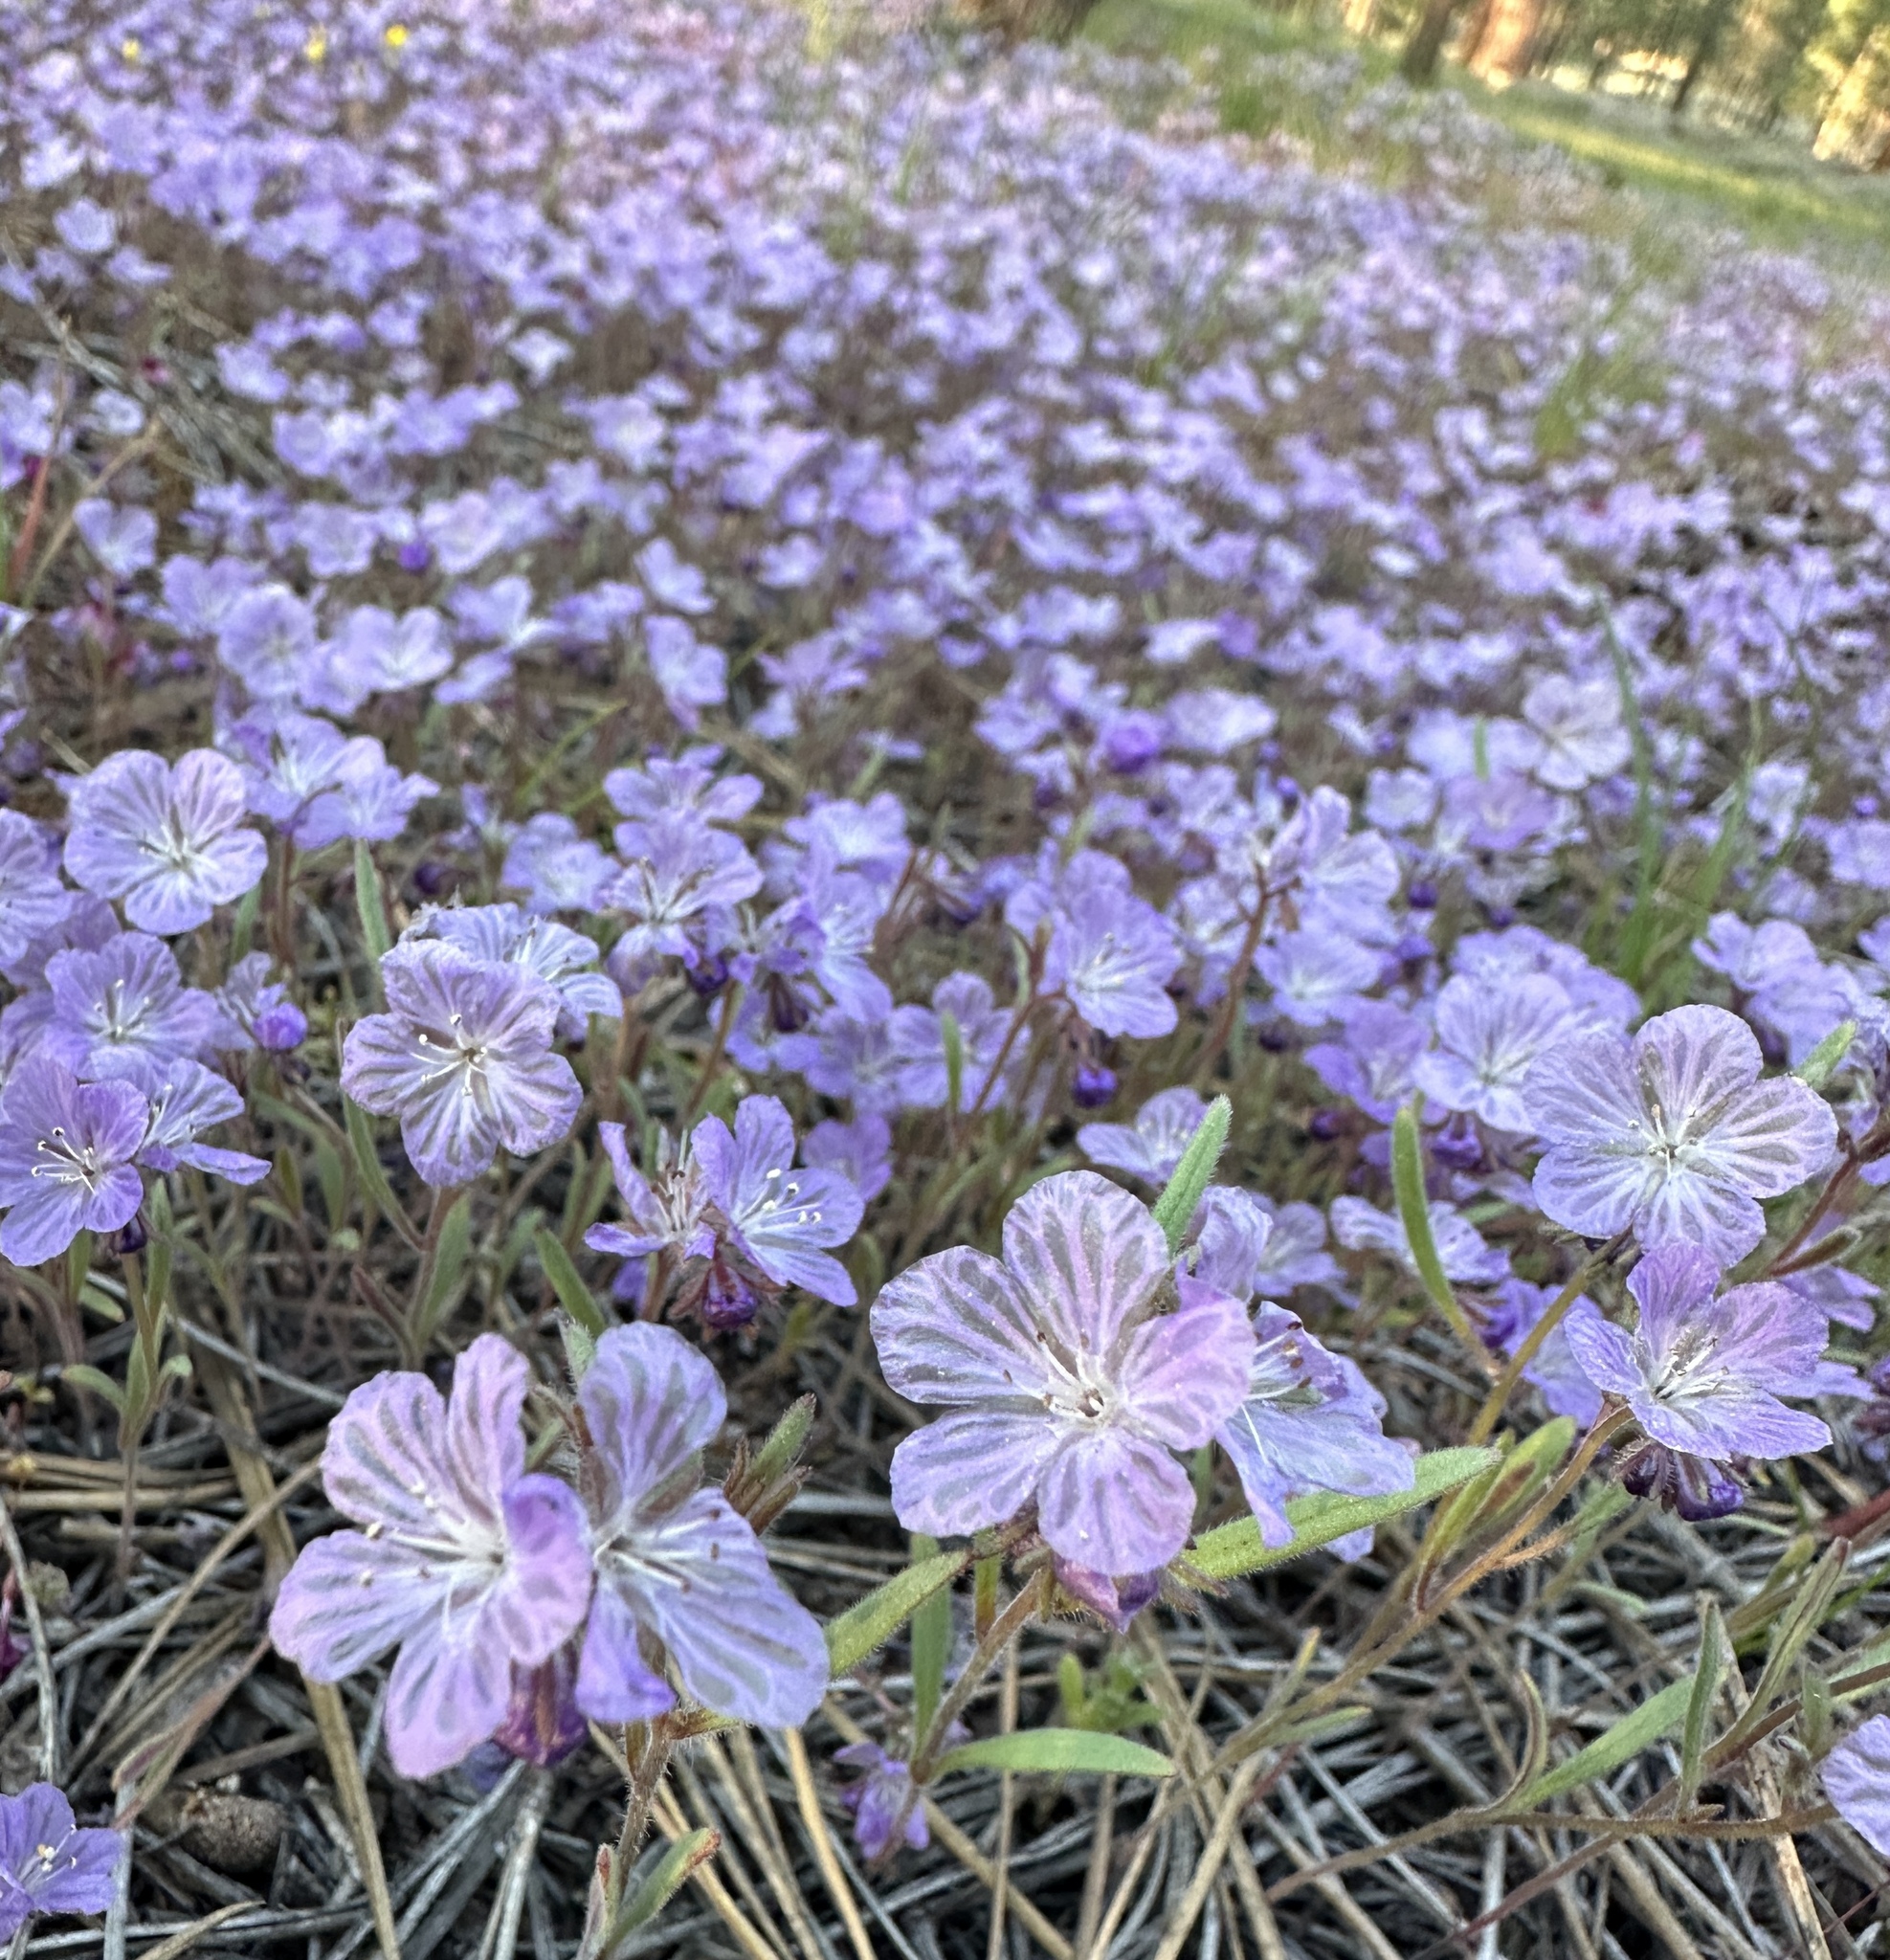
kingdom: Plantae
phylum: Tracheophyta
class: Magnoliopsida
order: Boraginales
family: Hydrophyllaceae
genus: Phacelia
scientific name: Phacelia exilis
